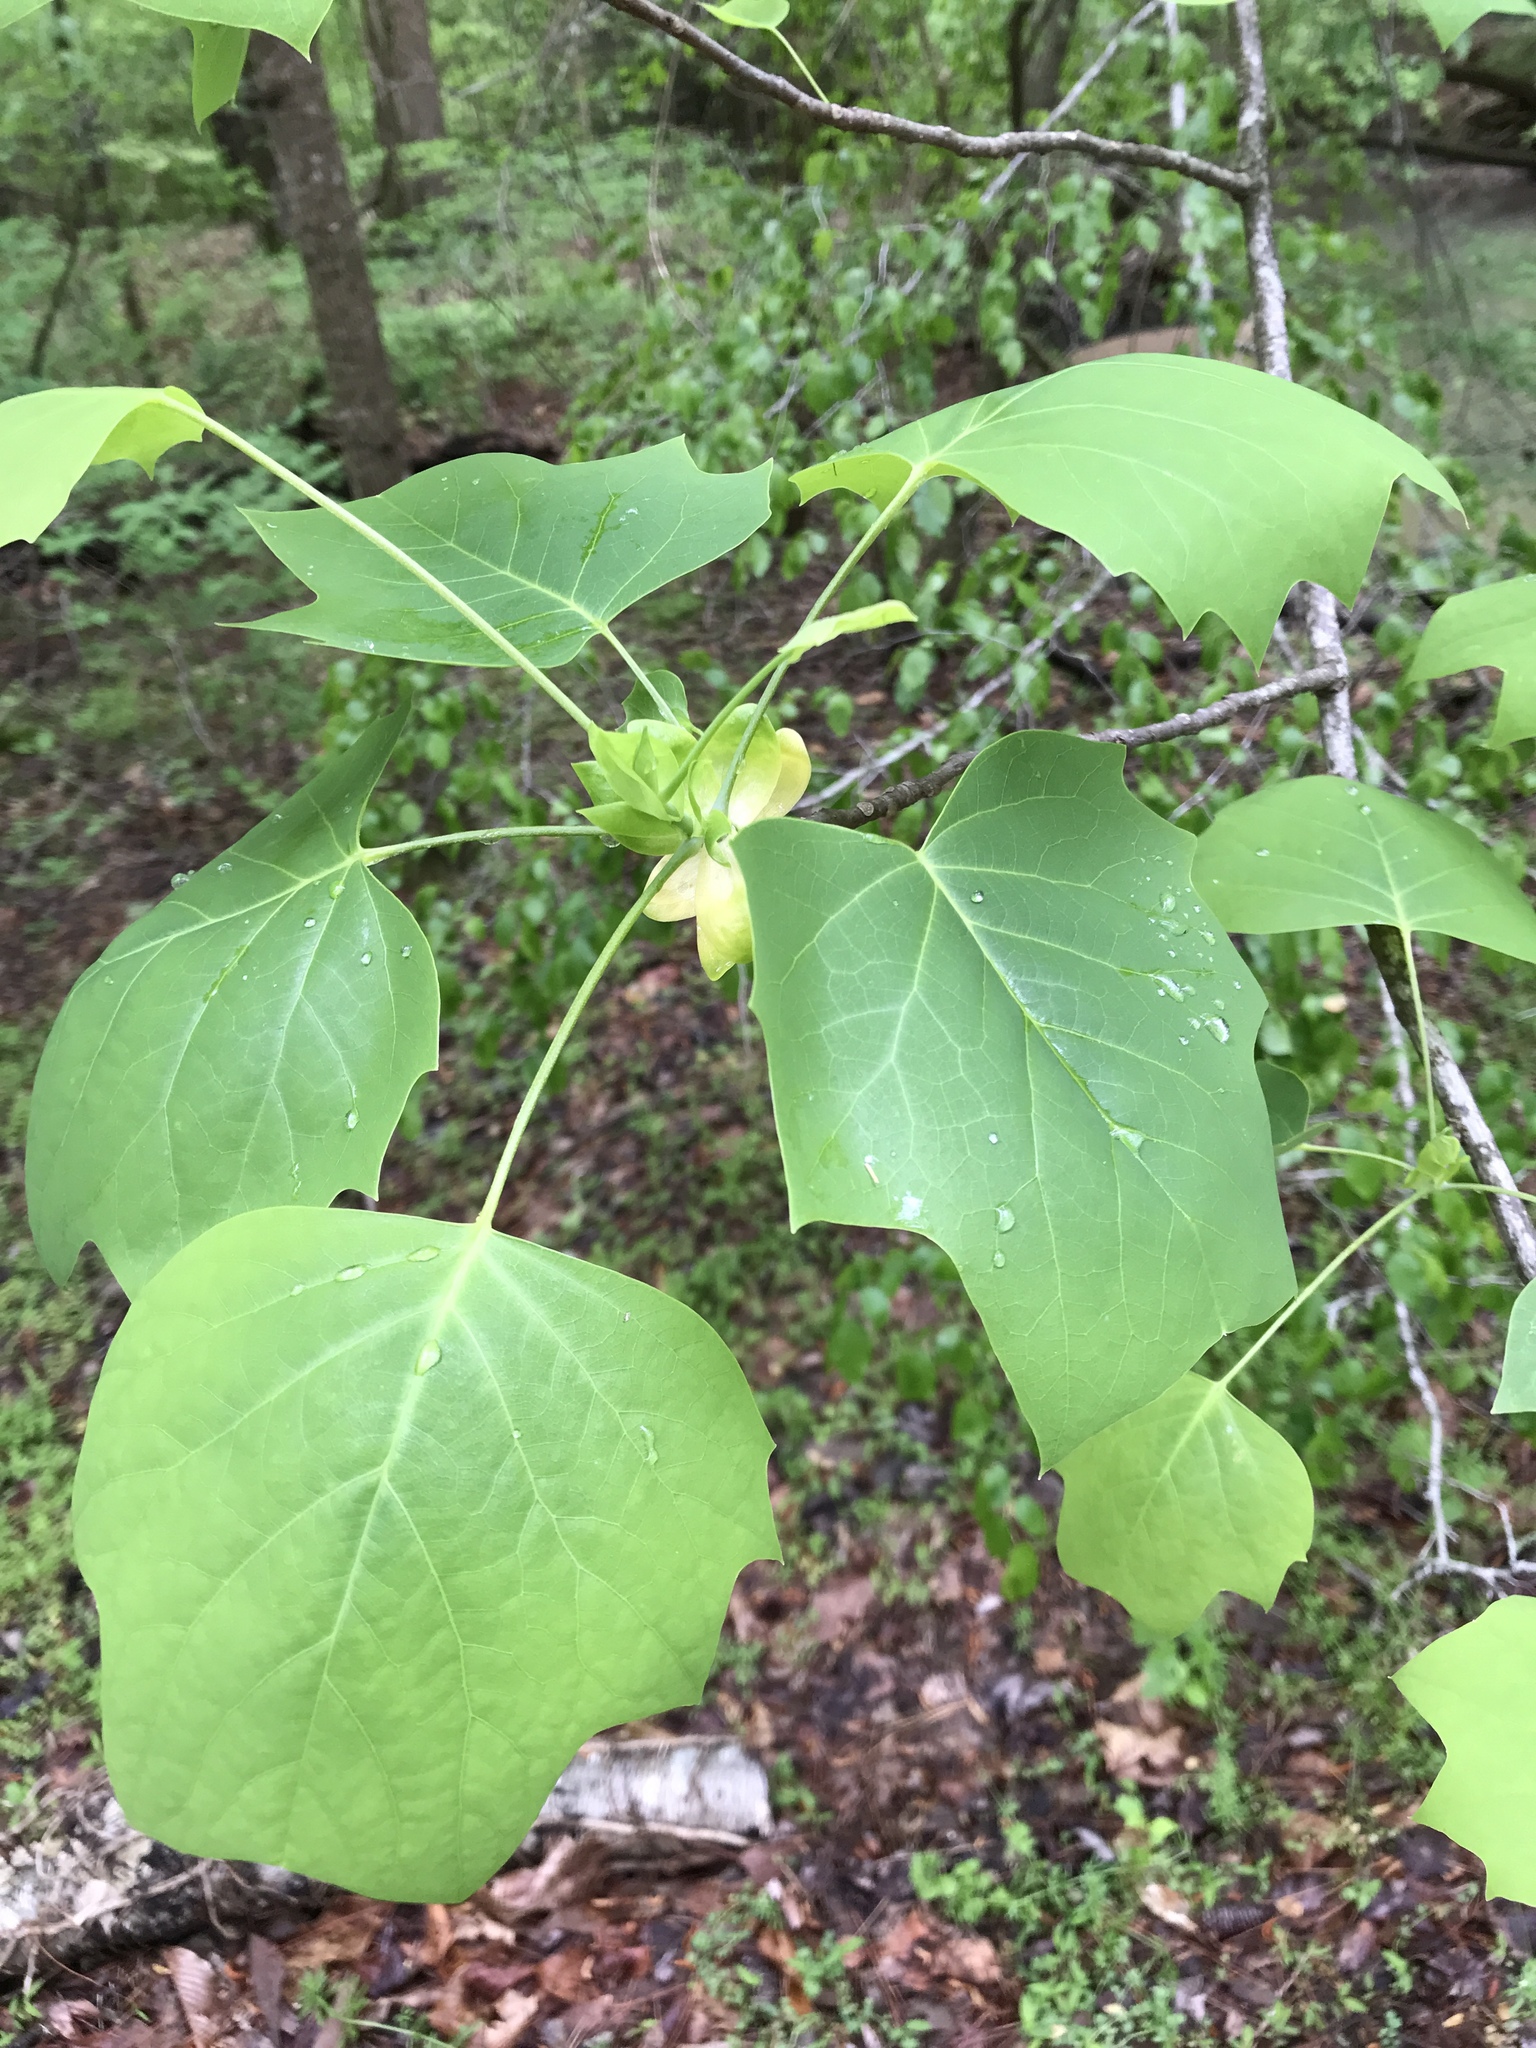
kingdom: Plantae
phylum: Tracheophyta
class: Magnoliopsida
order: Magnoliales
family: Magnoliaceae
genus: Liriodendron
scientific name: Liriodendron tulipifera
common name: Tulip tree
